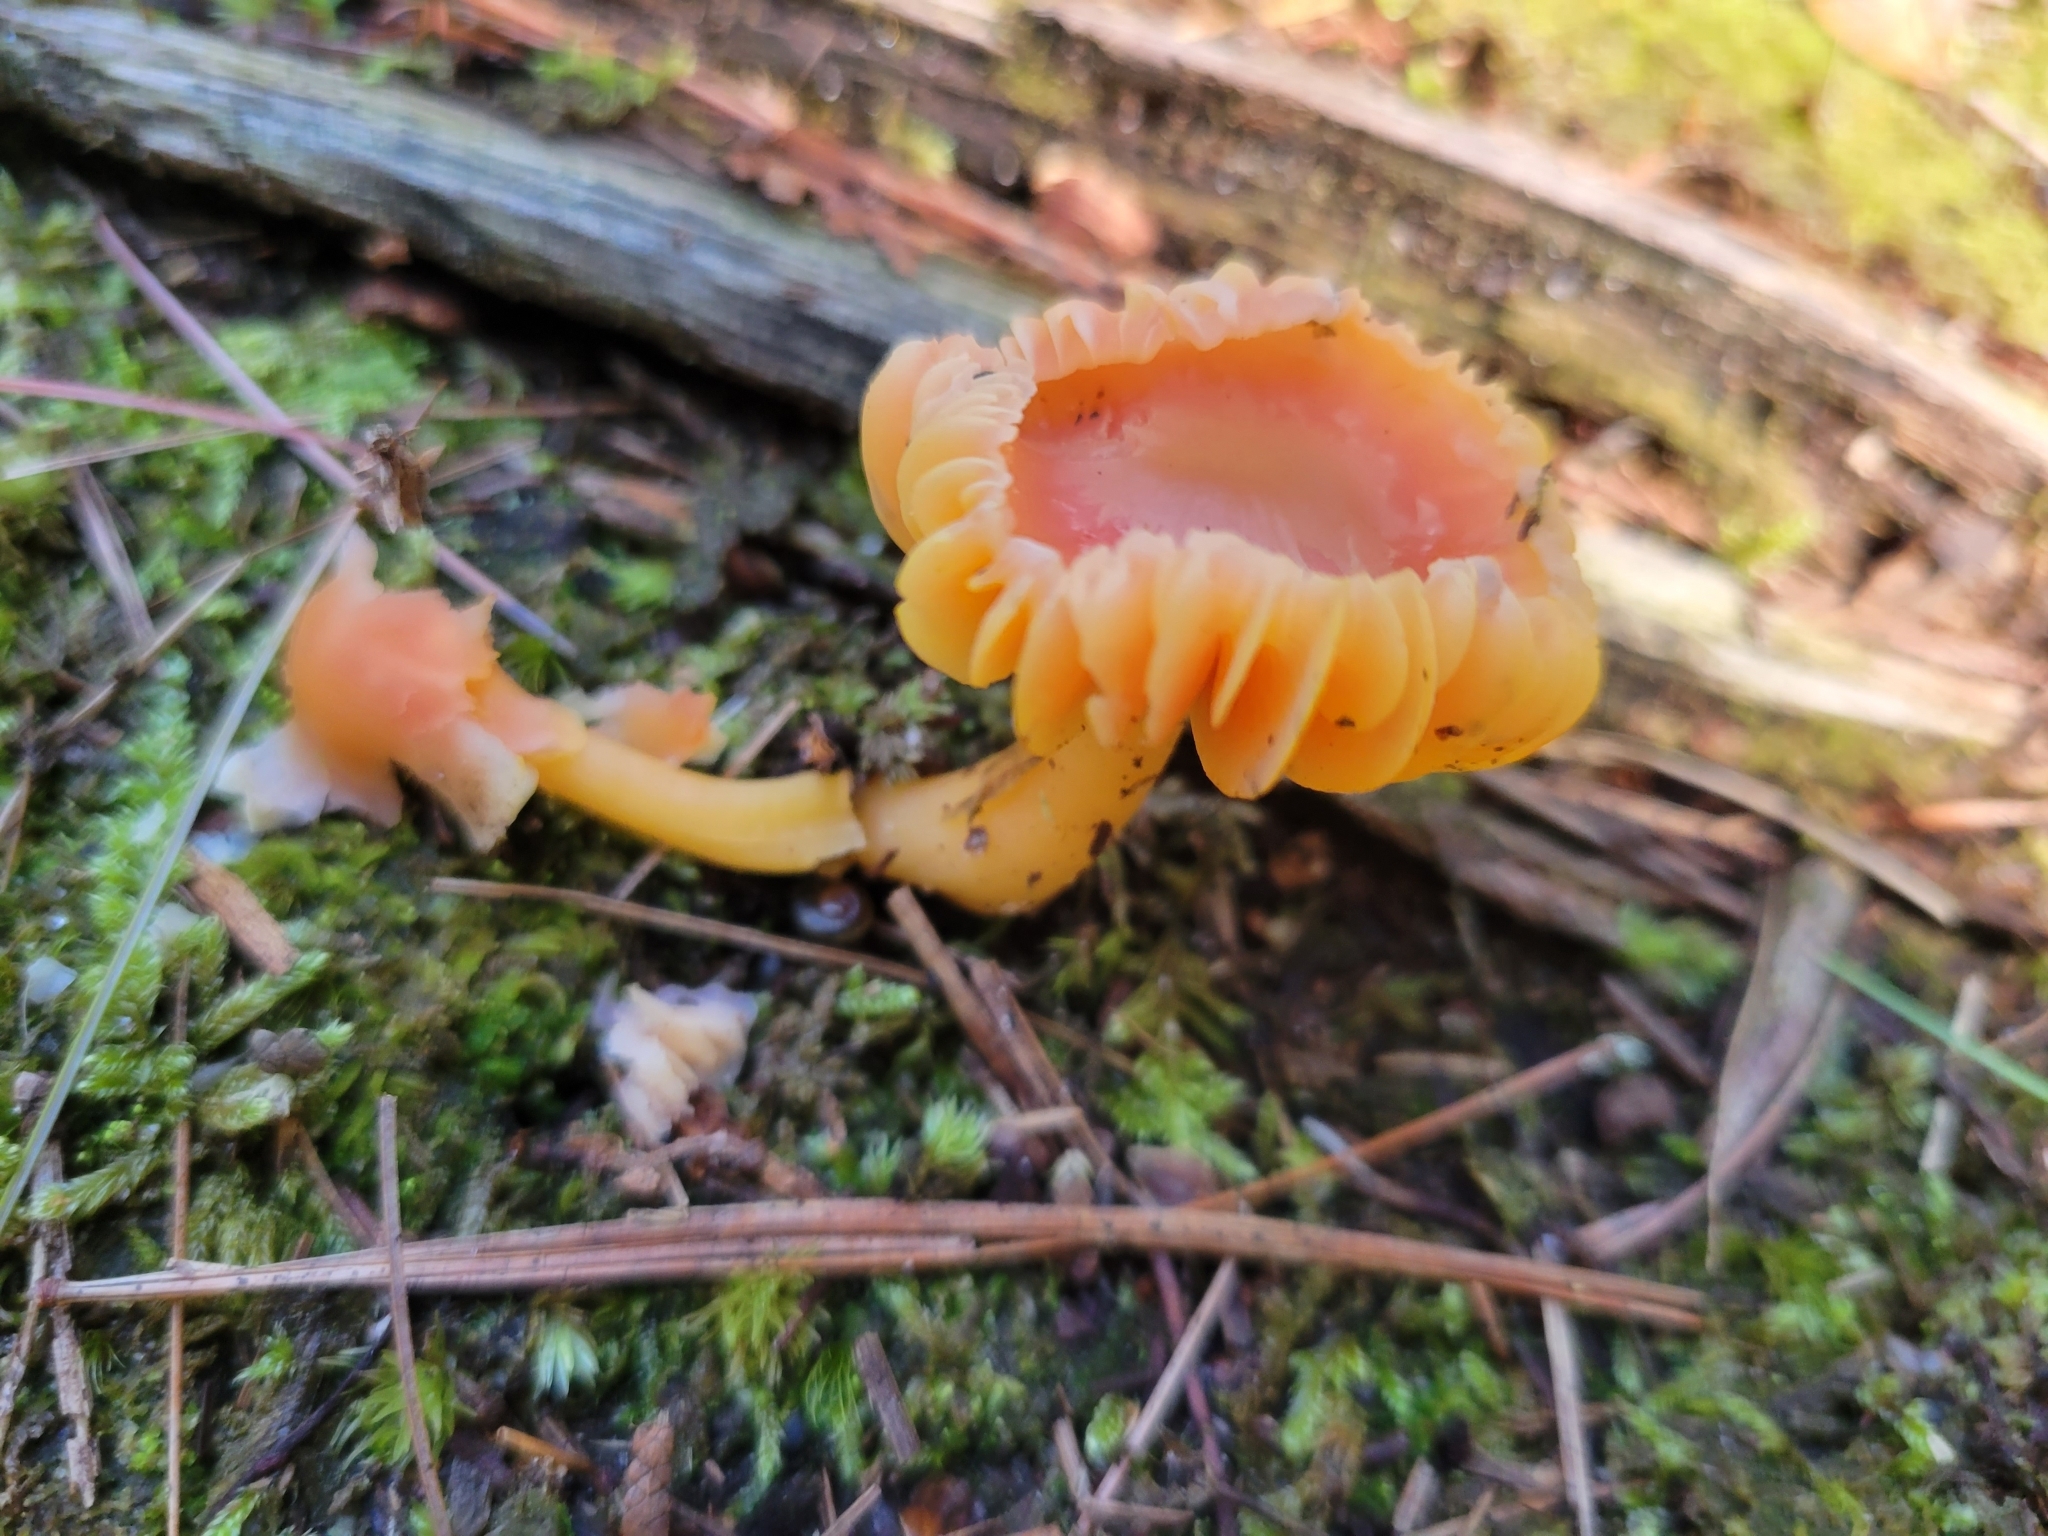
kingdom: Fungi
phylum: Basidiomycota
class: Agaricomycetes
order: Agaricales
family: Hygrophoraceae
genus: Humidicutis
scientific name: Humidicutis marginata
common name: Orange gilled waxcap
